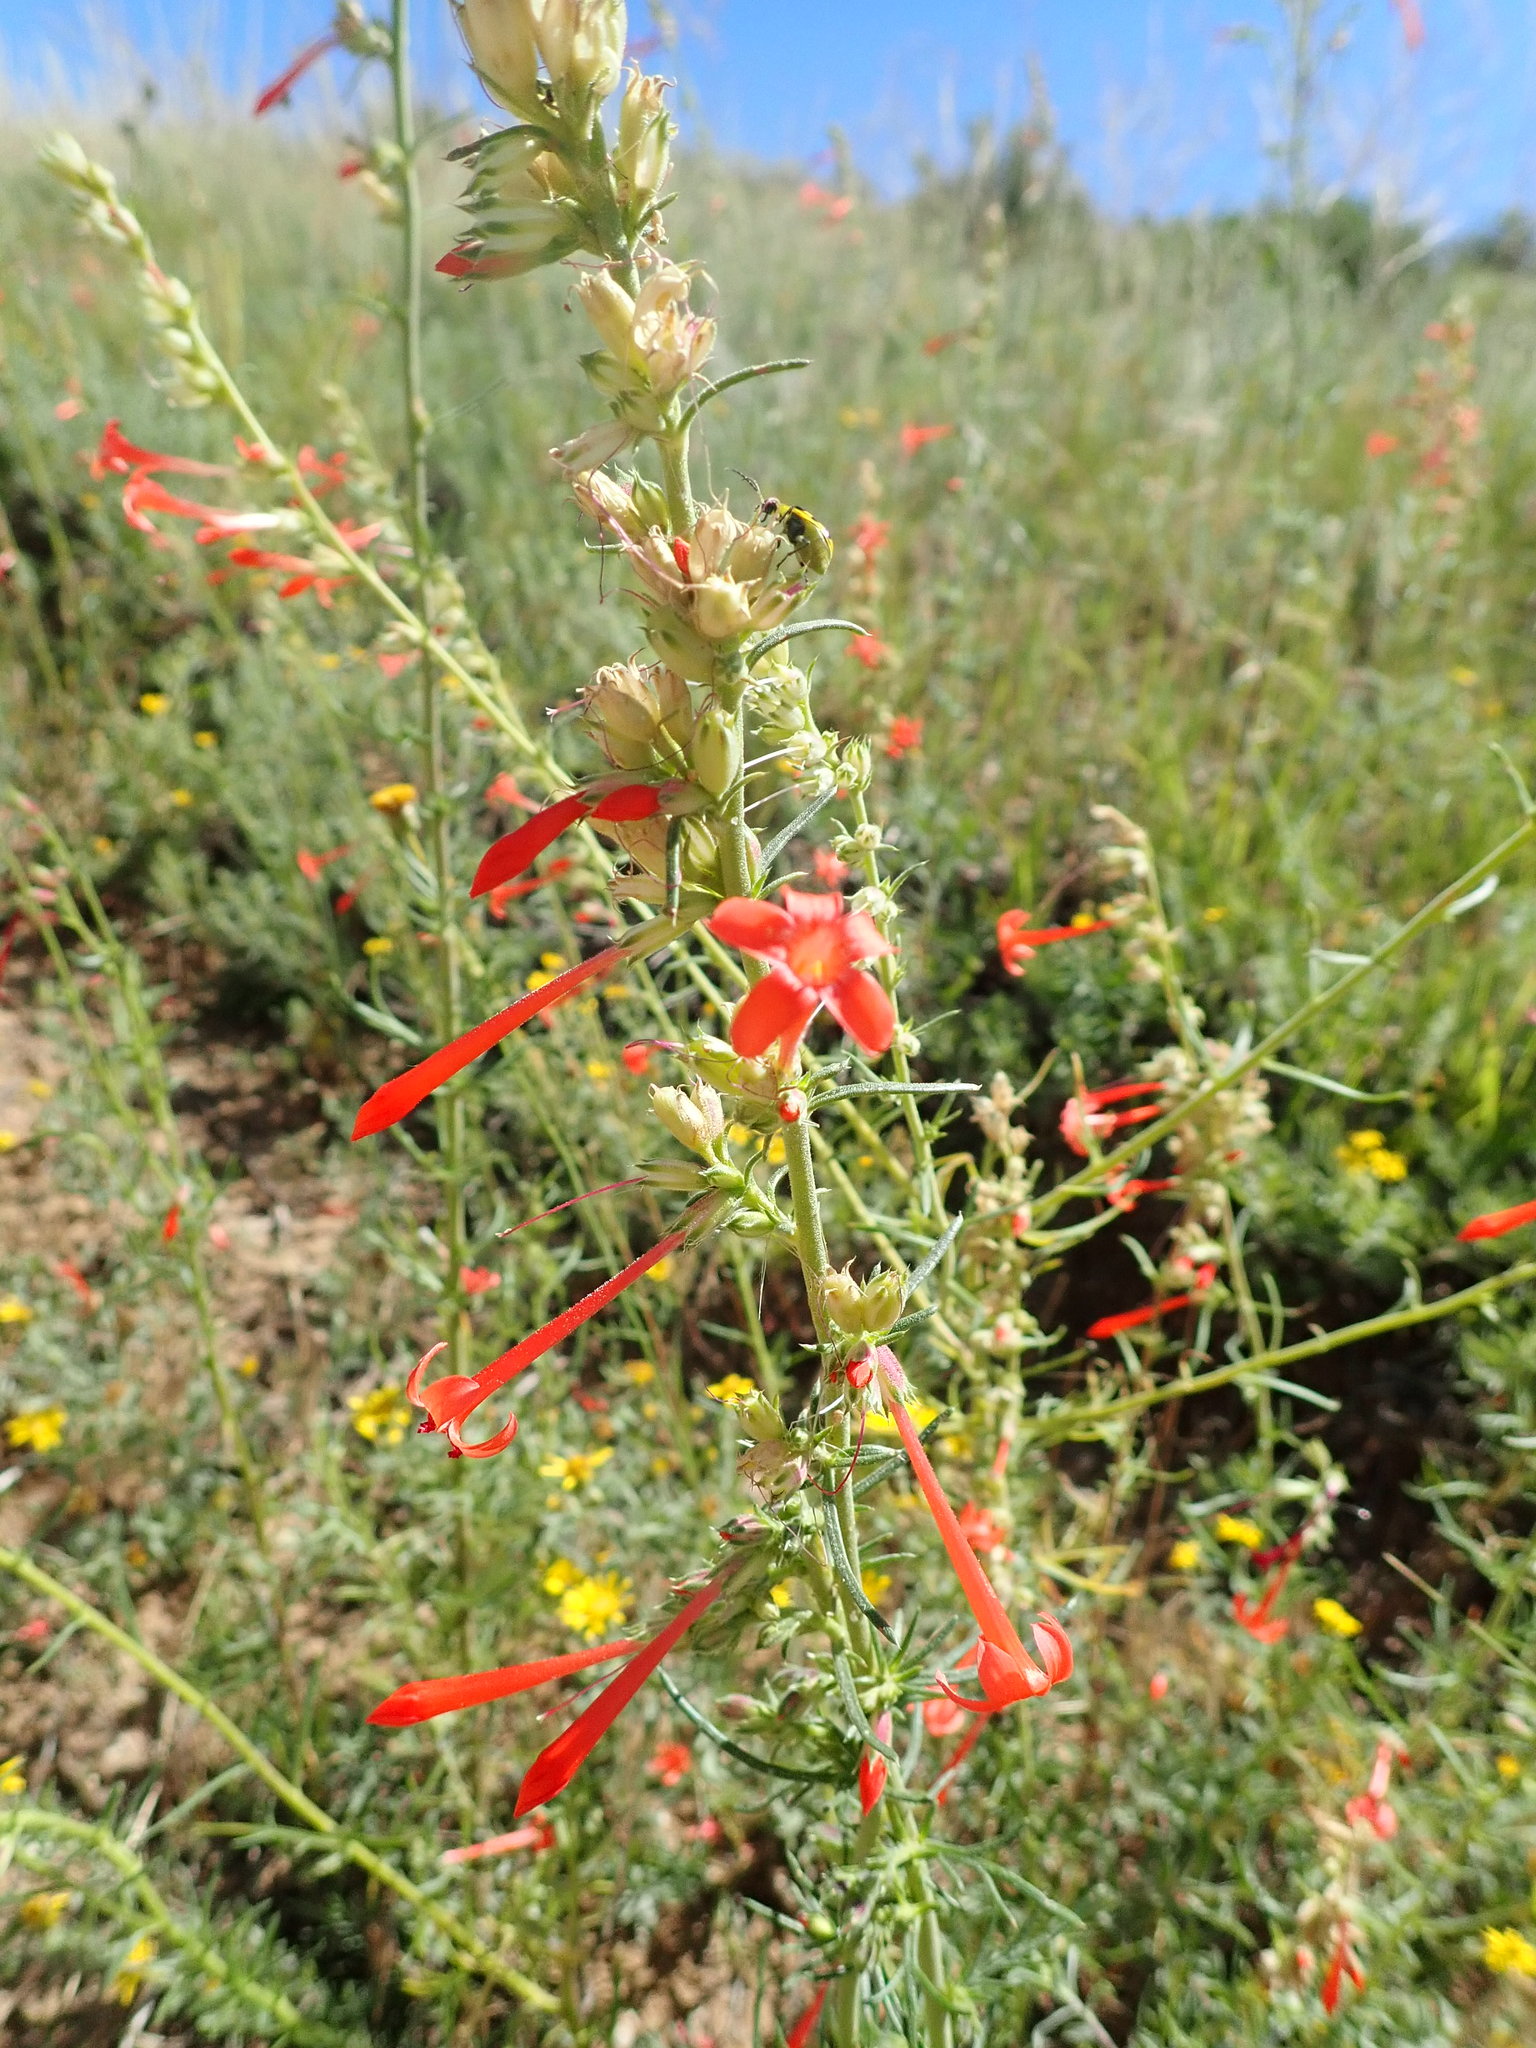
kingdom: Plantae
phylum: Tracheophyta
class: Magnoliopsida
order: Ericales
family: Polemoniaceae
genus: Ipomopsis
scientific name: Ipomopsis aggregata
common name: Scarlet gilia
